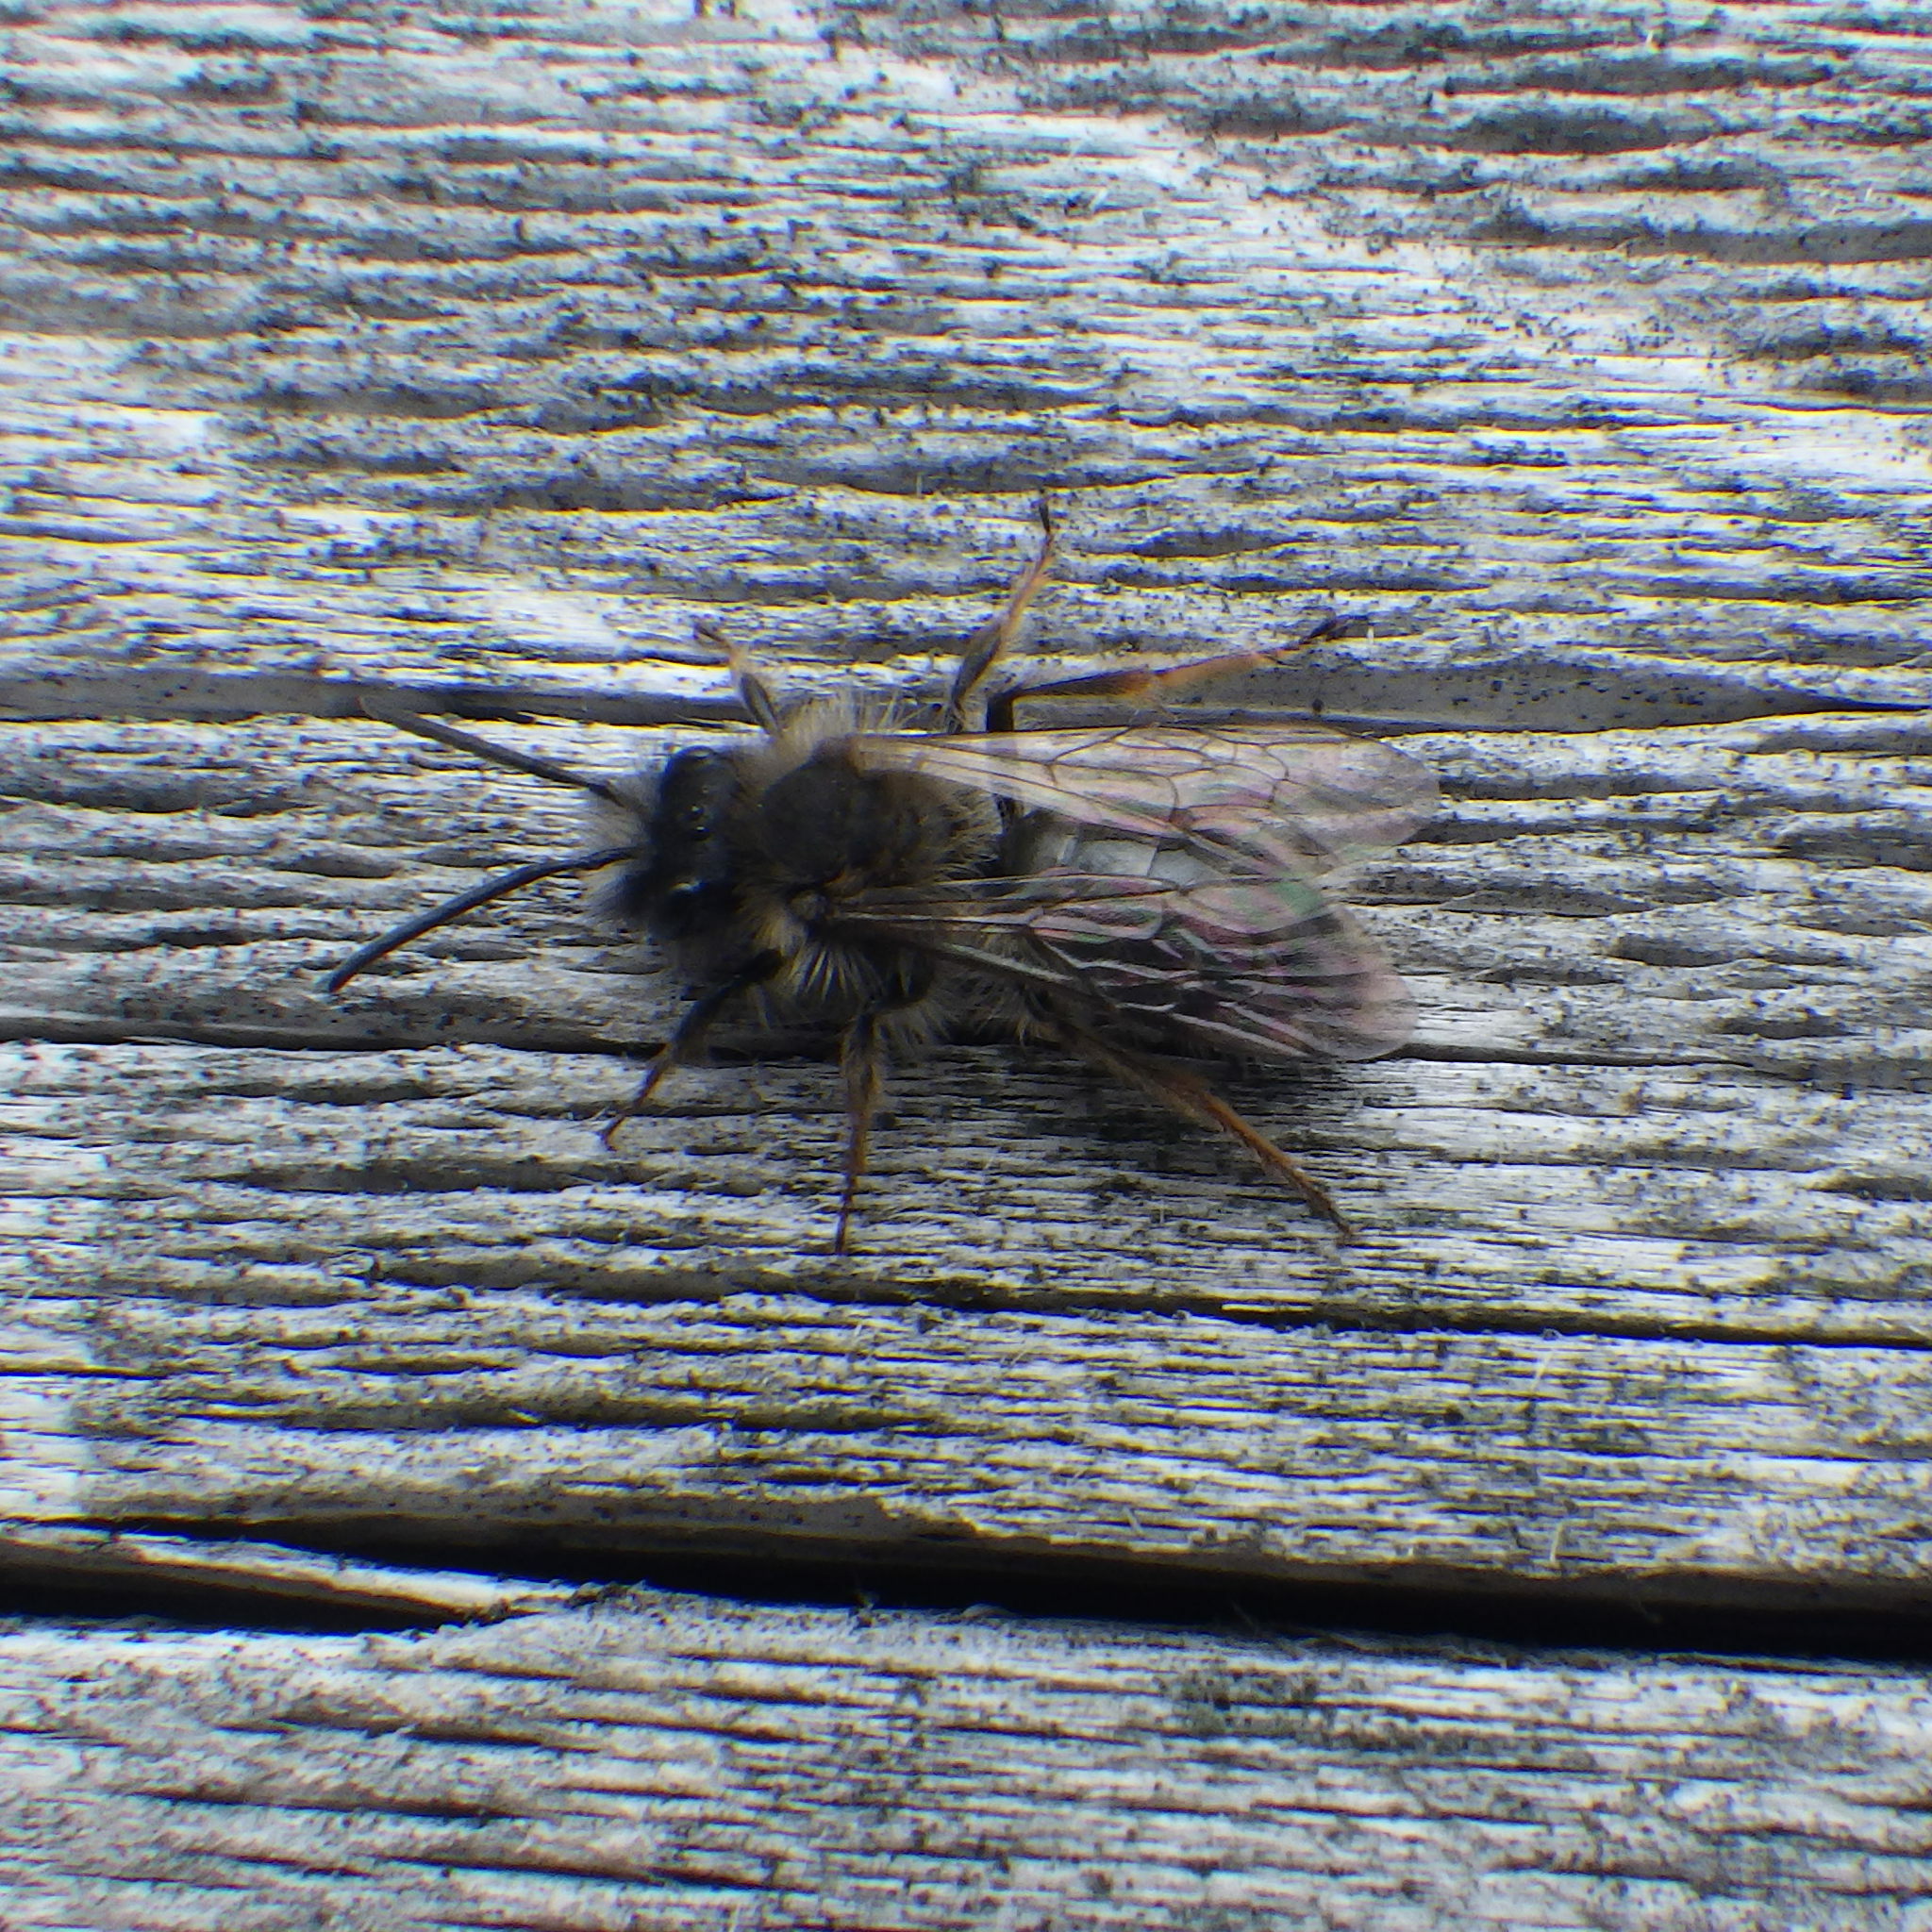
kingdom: Animalia
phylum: Arthropoda
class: Insecta
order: Hymenoptera
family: Andrenidae
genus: Andrena
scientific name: Andrena clarkella
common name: Clarke's mining bee
